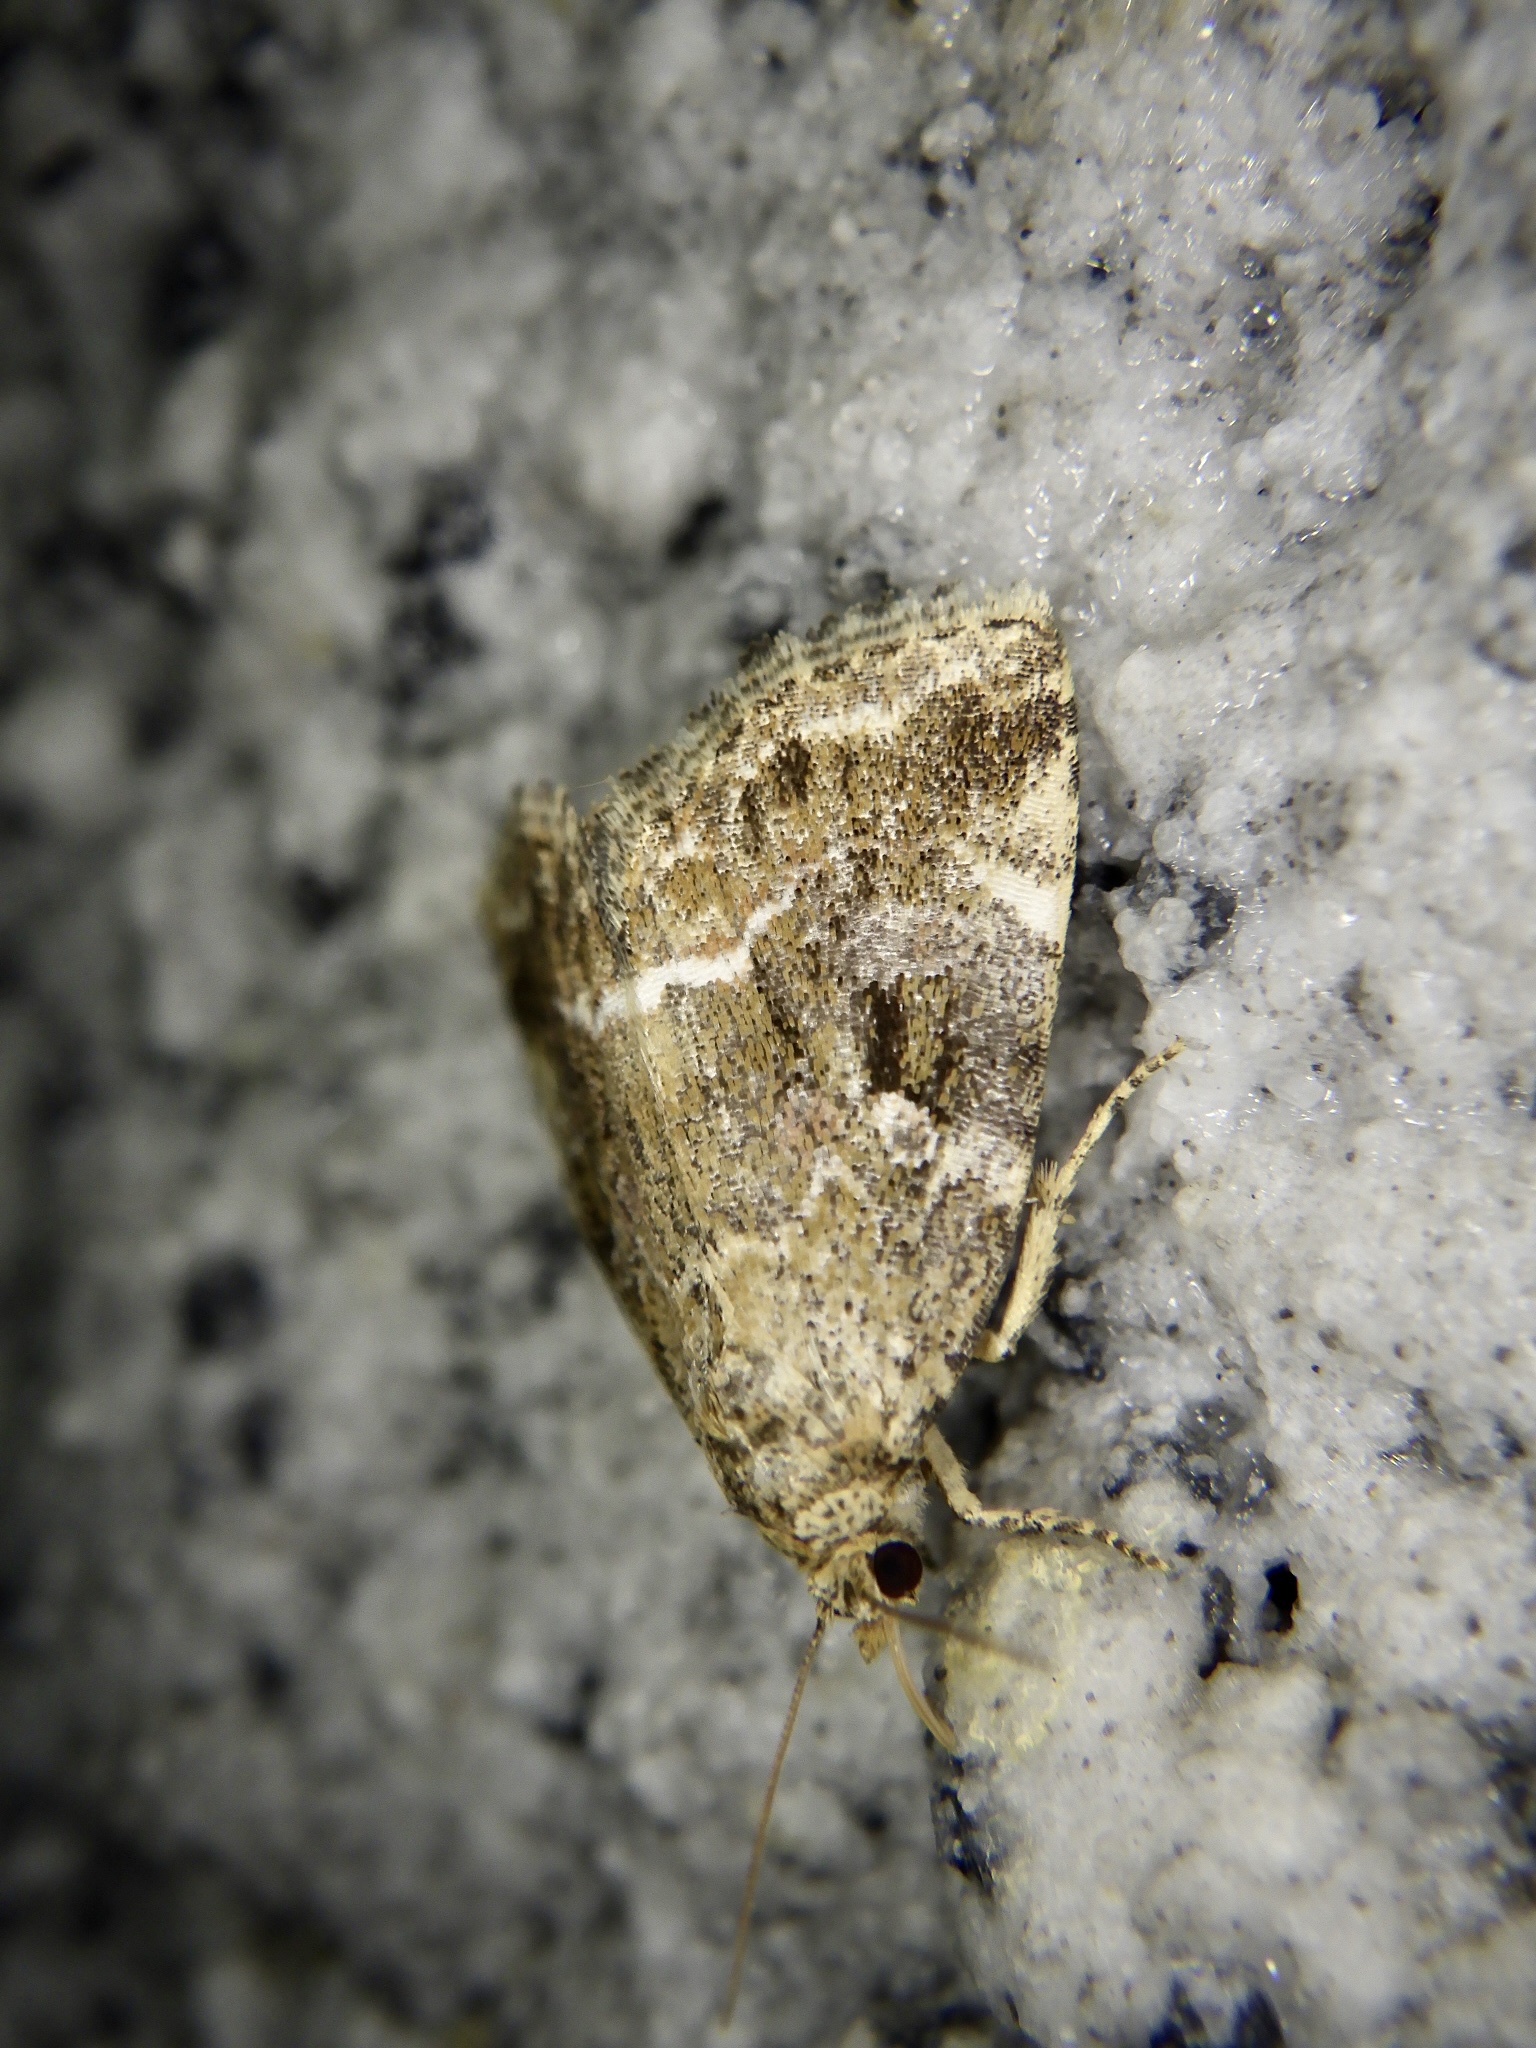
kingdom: Animalia
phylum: Arthropoda
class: Insecta
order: Lepidoptera
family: Noctuidae
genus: Pseudodeltote
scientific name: Pseudodeltote
